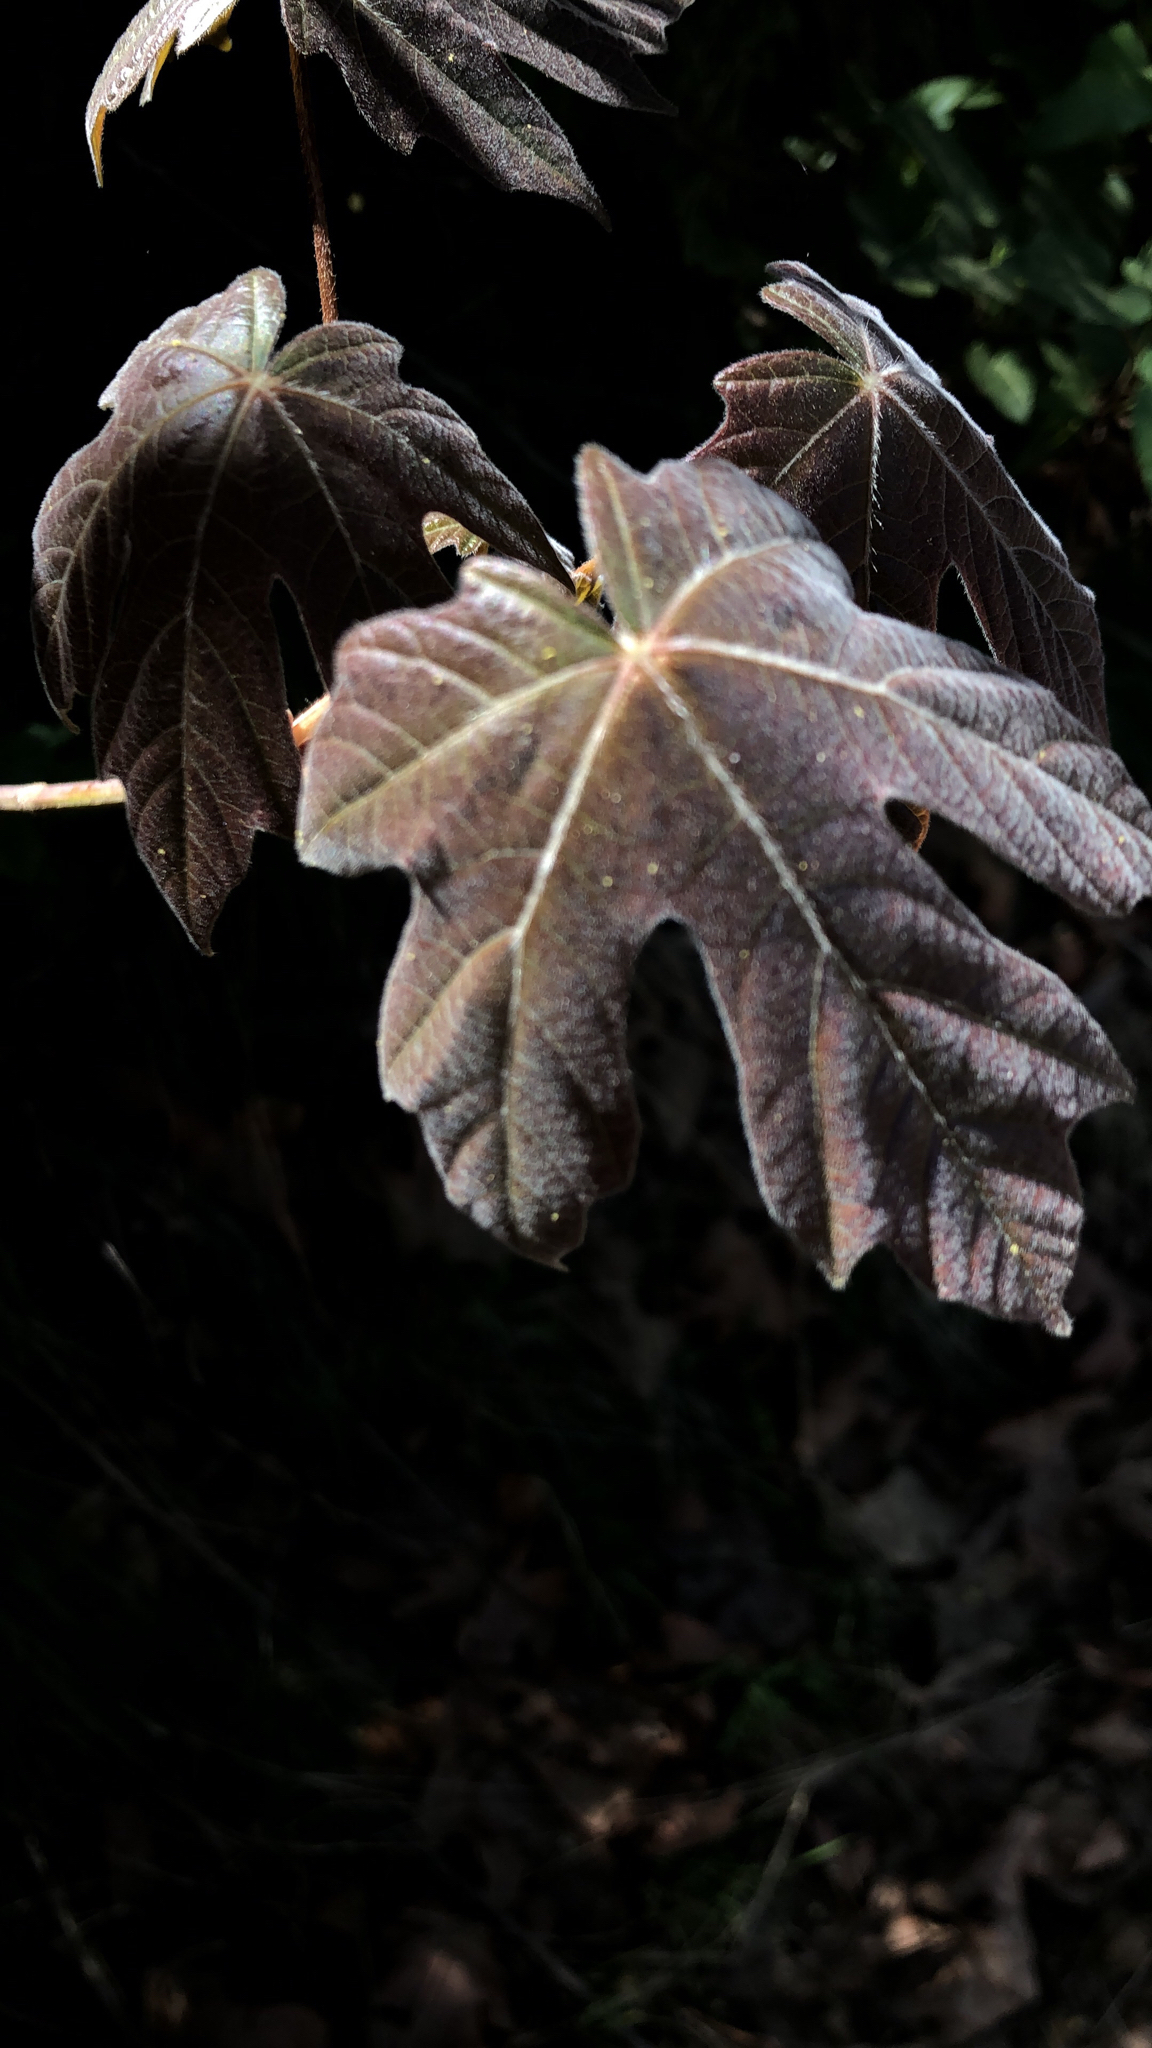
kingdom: Plantae
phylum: Tracheophyta
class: Magnoliopsida
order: Sapindales
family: Sapindaceae
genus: Acer
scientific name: Acer macrophyllum
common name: Oregon maple
